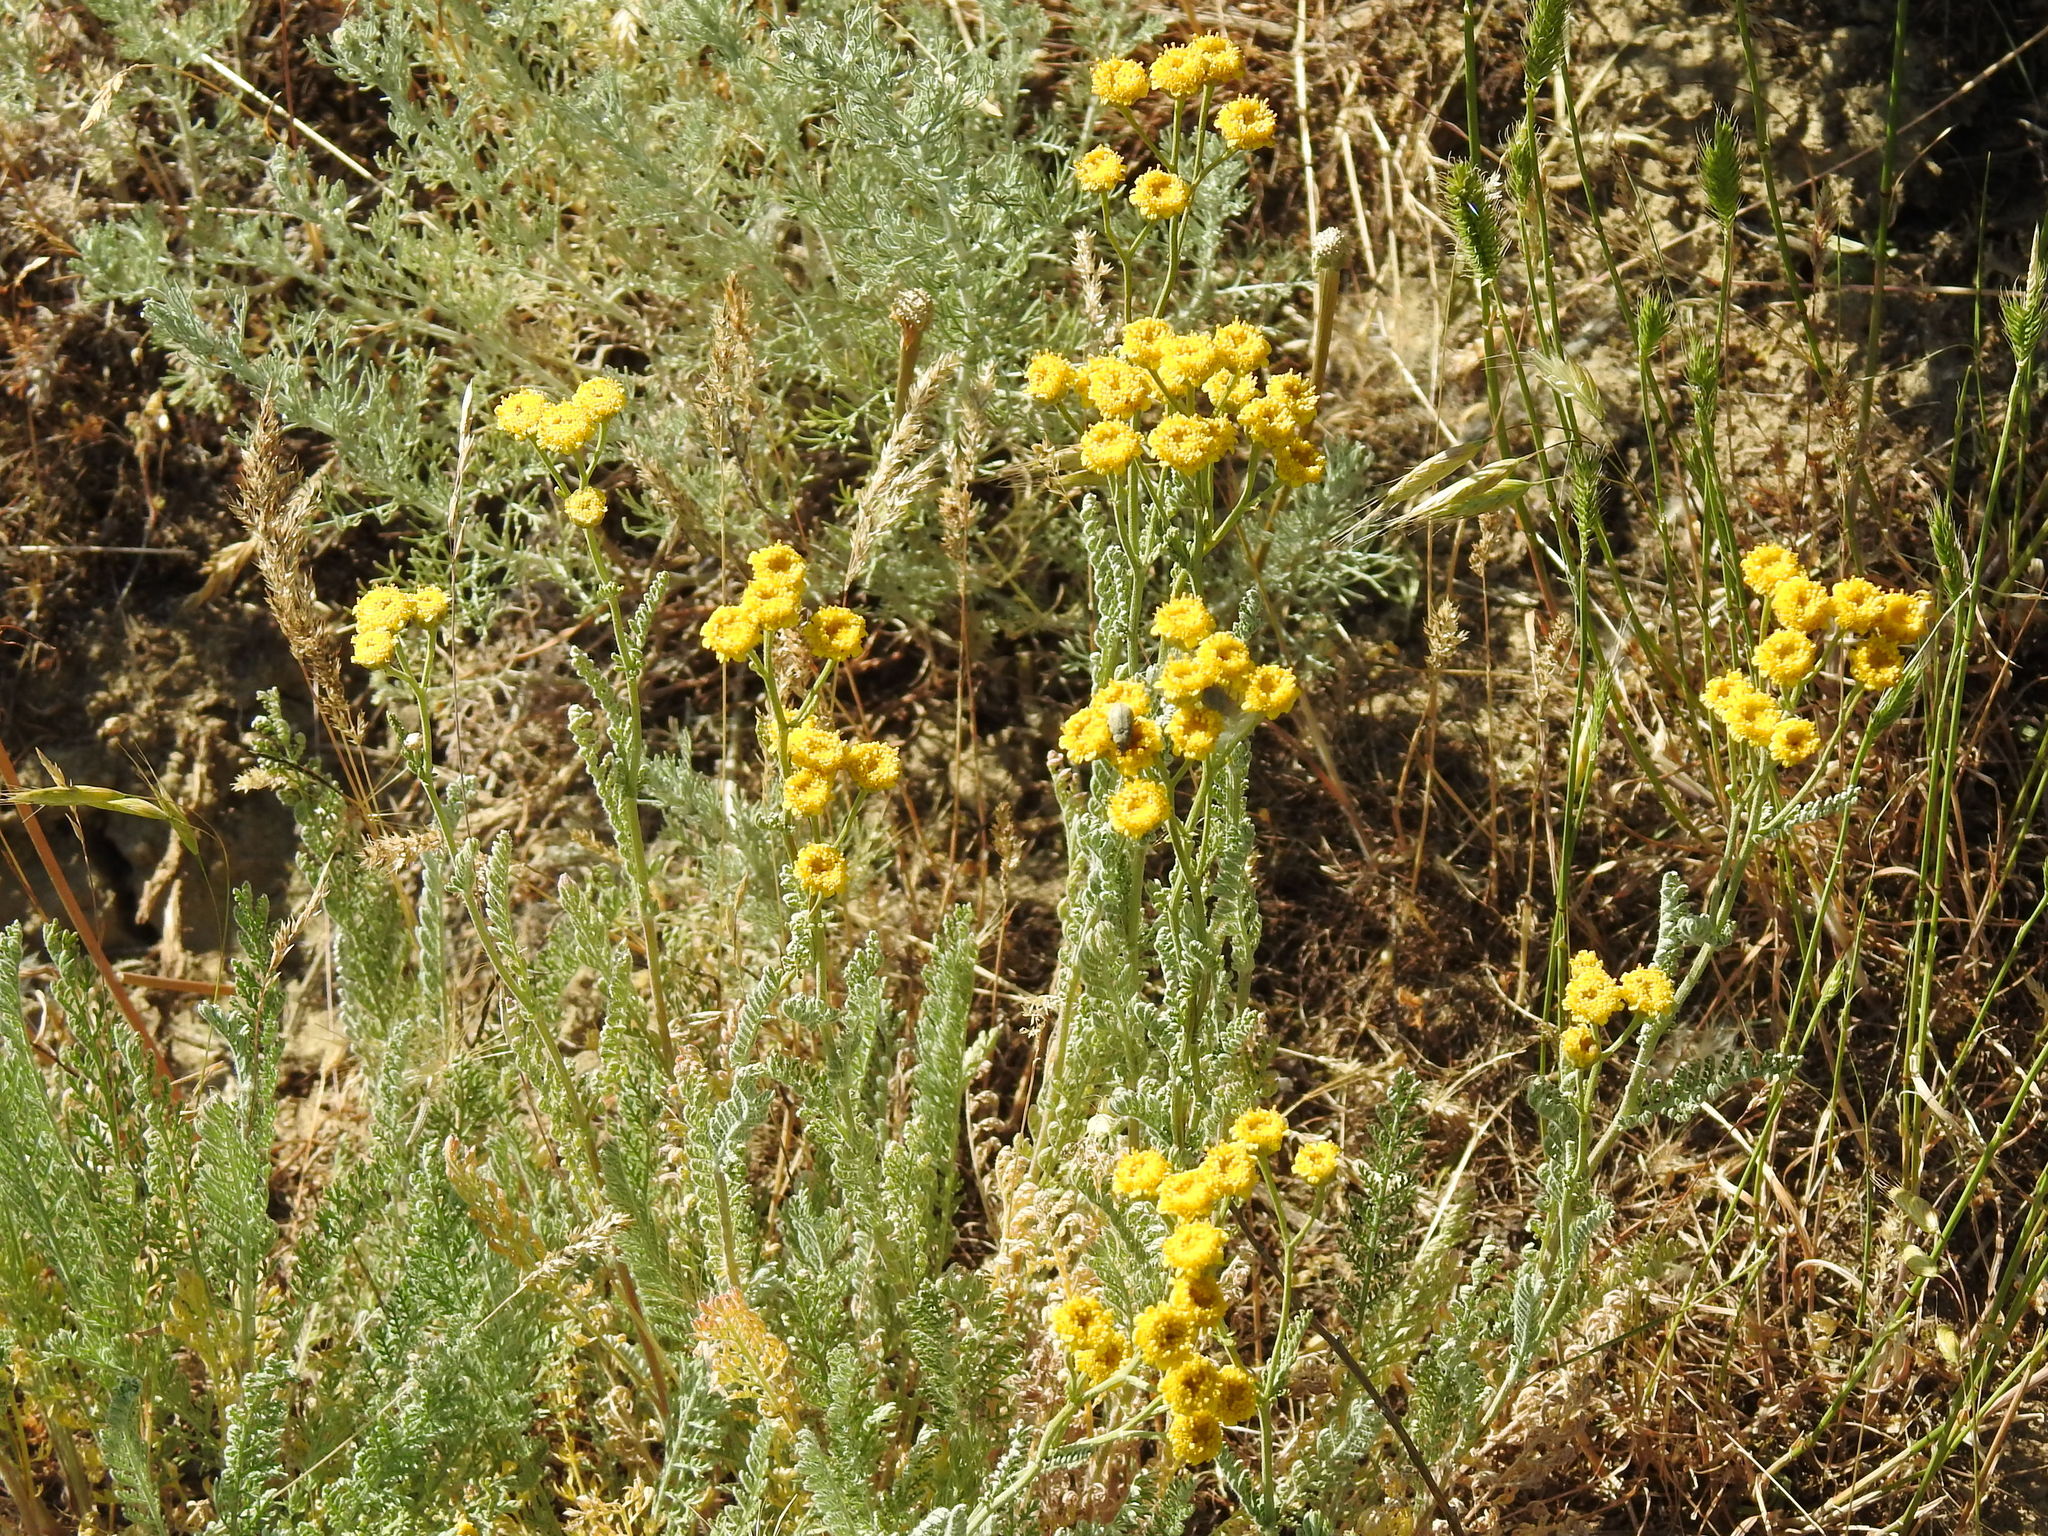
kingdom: Plantae
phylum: Tracheophyta
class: Magnoliopsida
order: Asterales
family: Asteraceae
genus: Tanacetum
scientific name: Tanacetum achilleifolium
